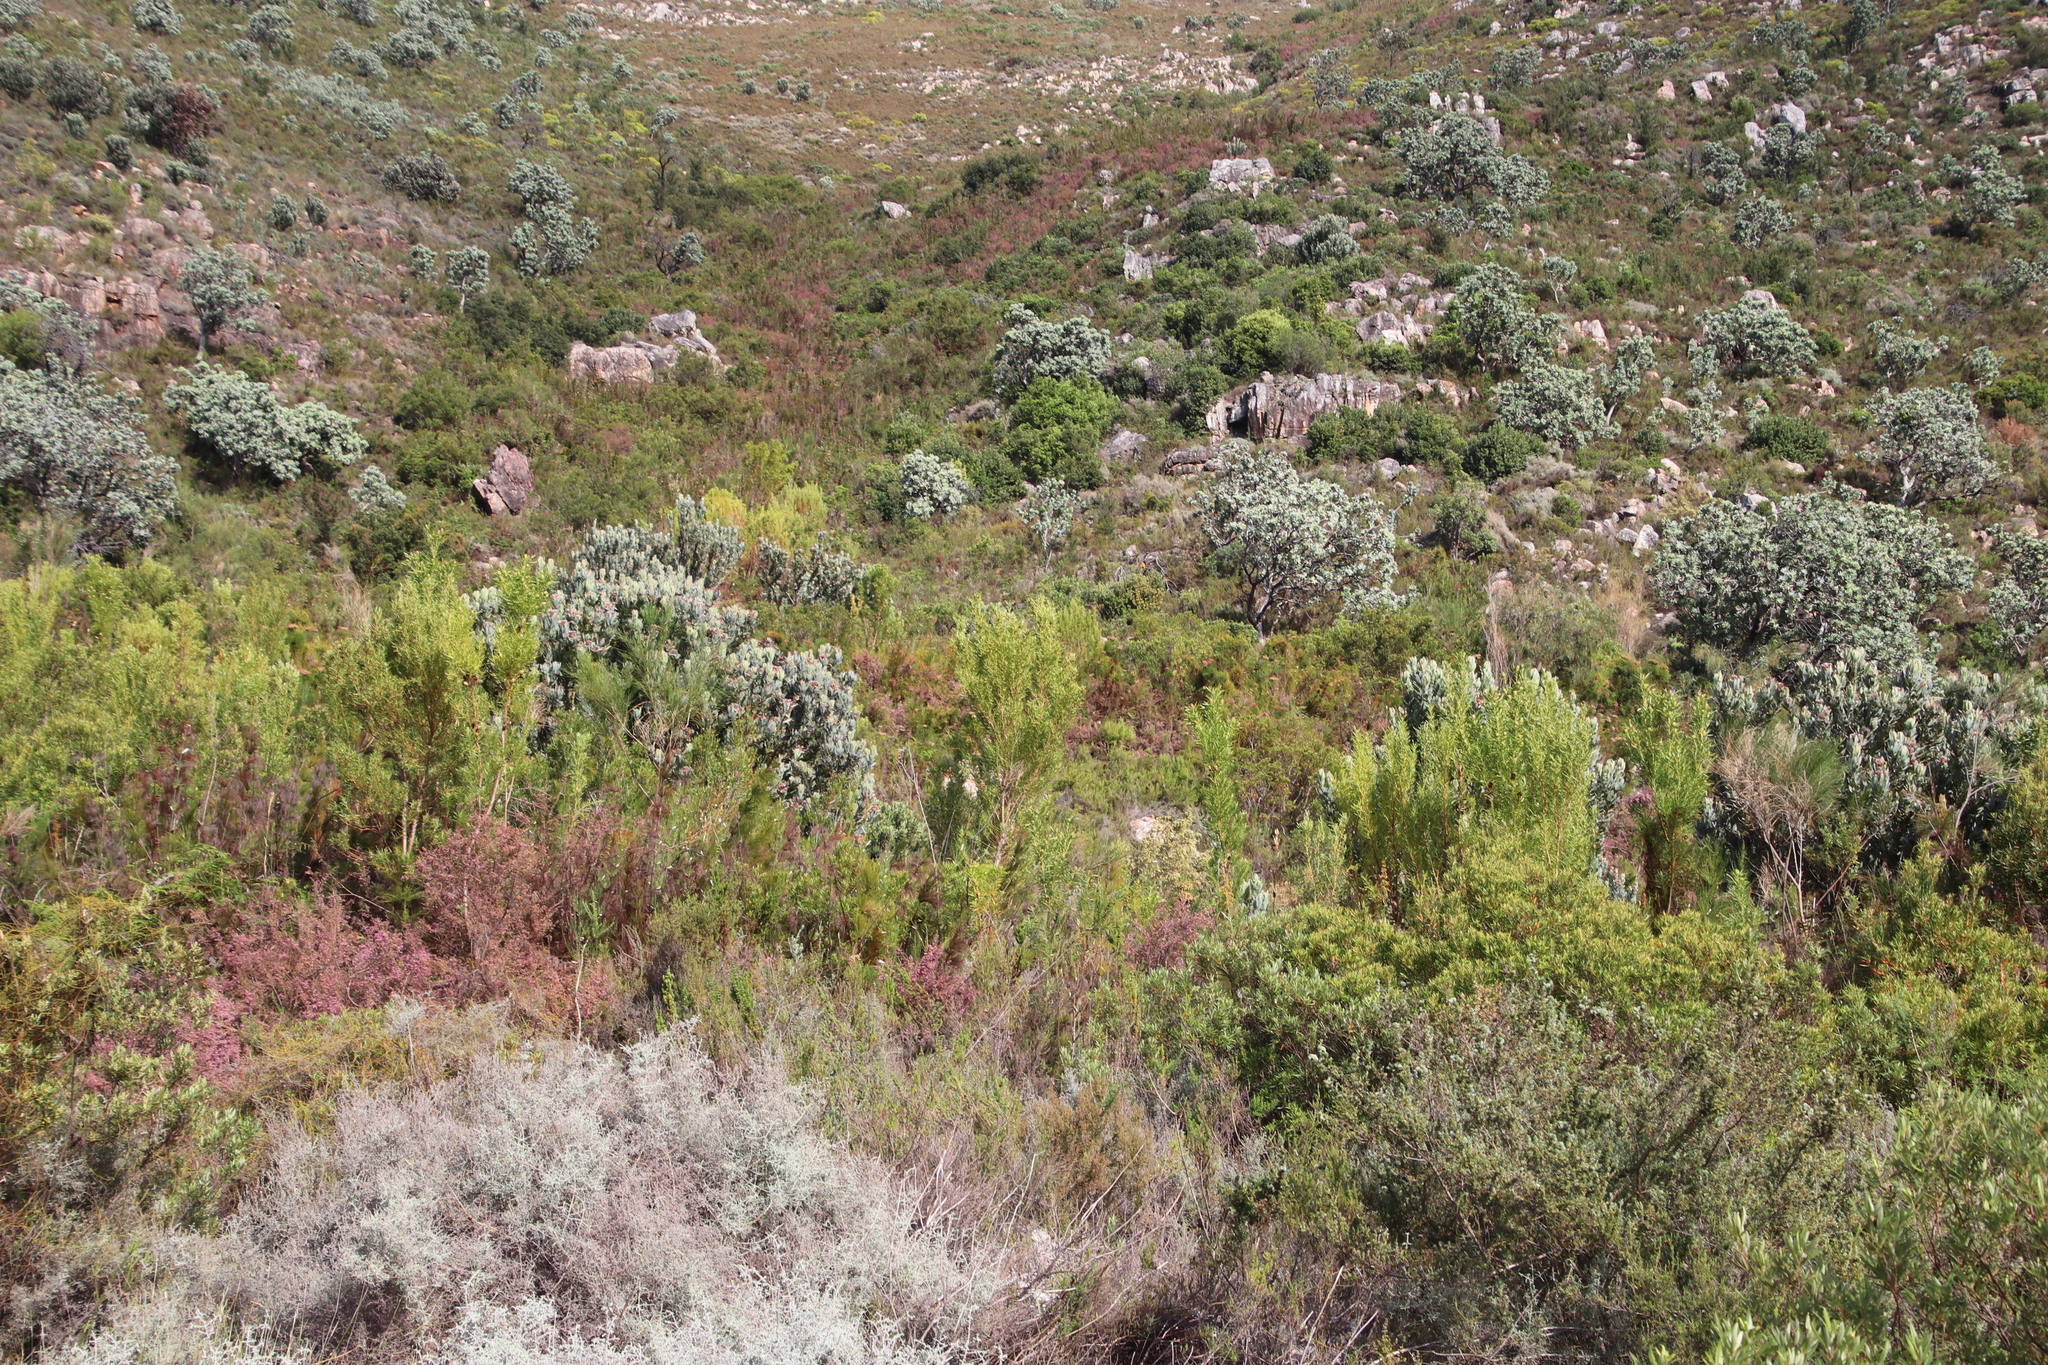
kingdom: Plantae
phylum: Tracheophyta
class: Magnoliopsida
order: Proteales
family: Proteaceae
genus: Leucadendron
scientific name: Leucadendron salicifolium
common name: Common stream conebush
